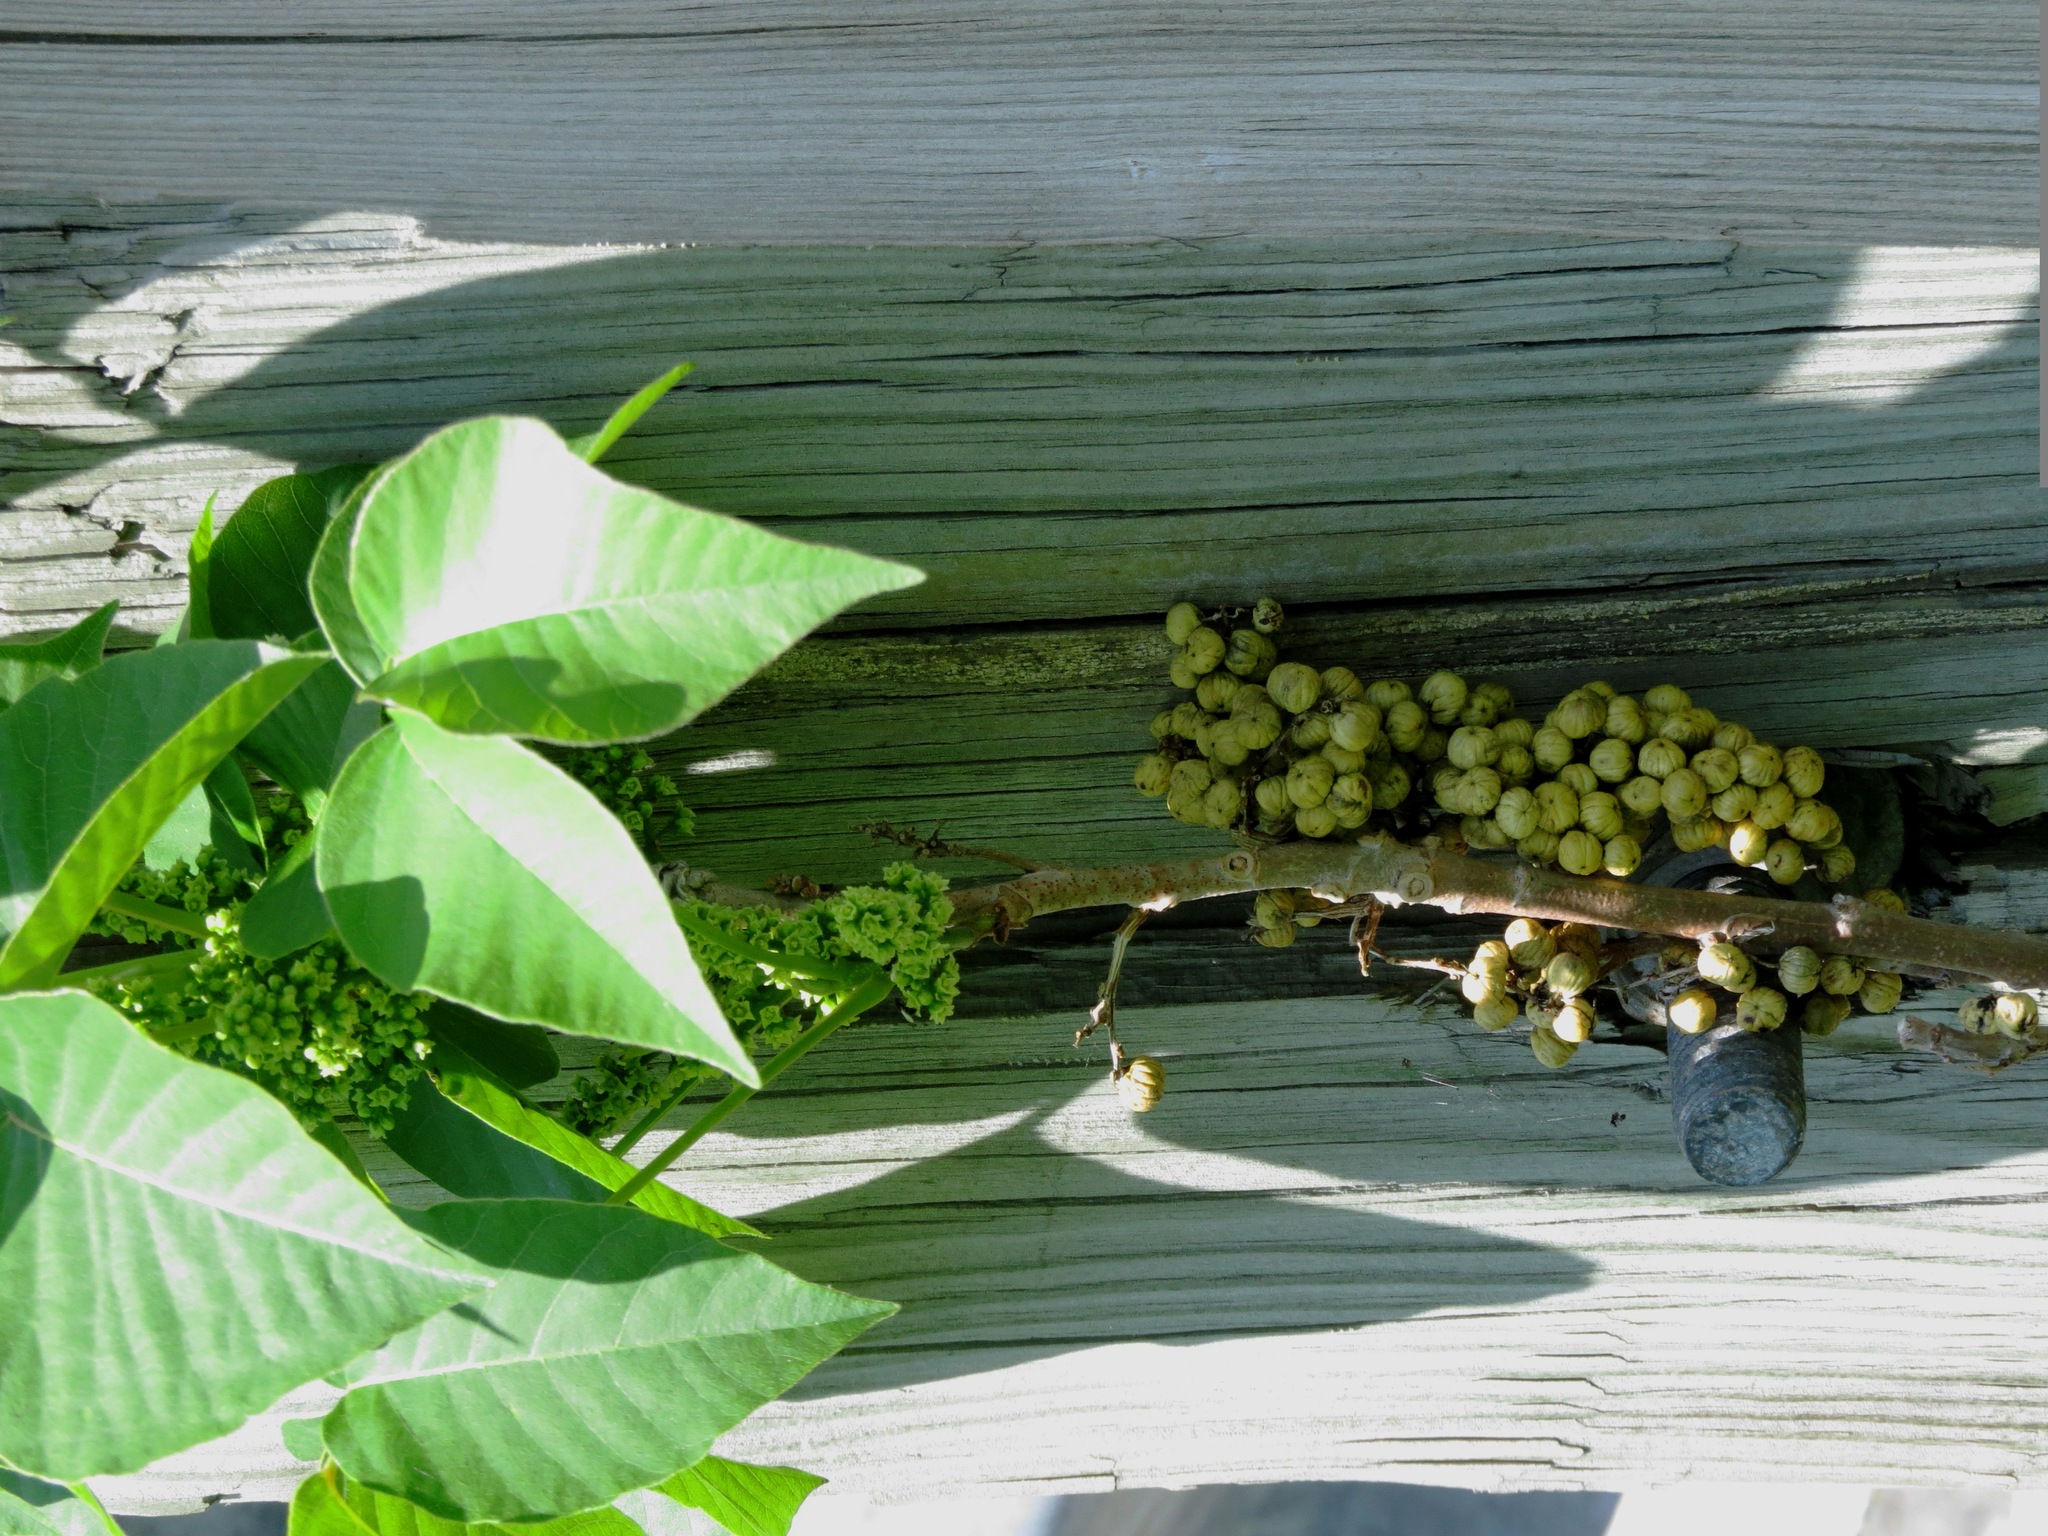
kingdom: Plantae
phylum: Tracheophyta
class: Magnoliopsida
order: Sapindales
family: Anacardiaceae
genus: Toxicodendron
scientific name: Toxicodendron radicans
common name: Poison ivy
